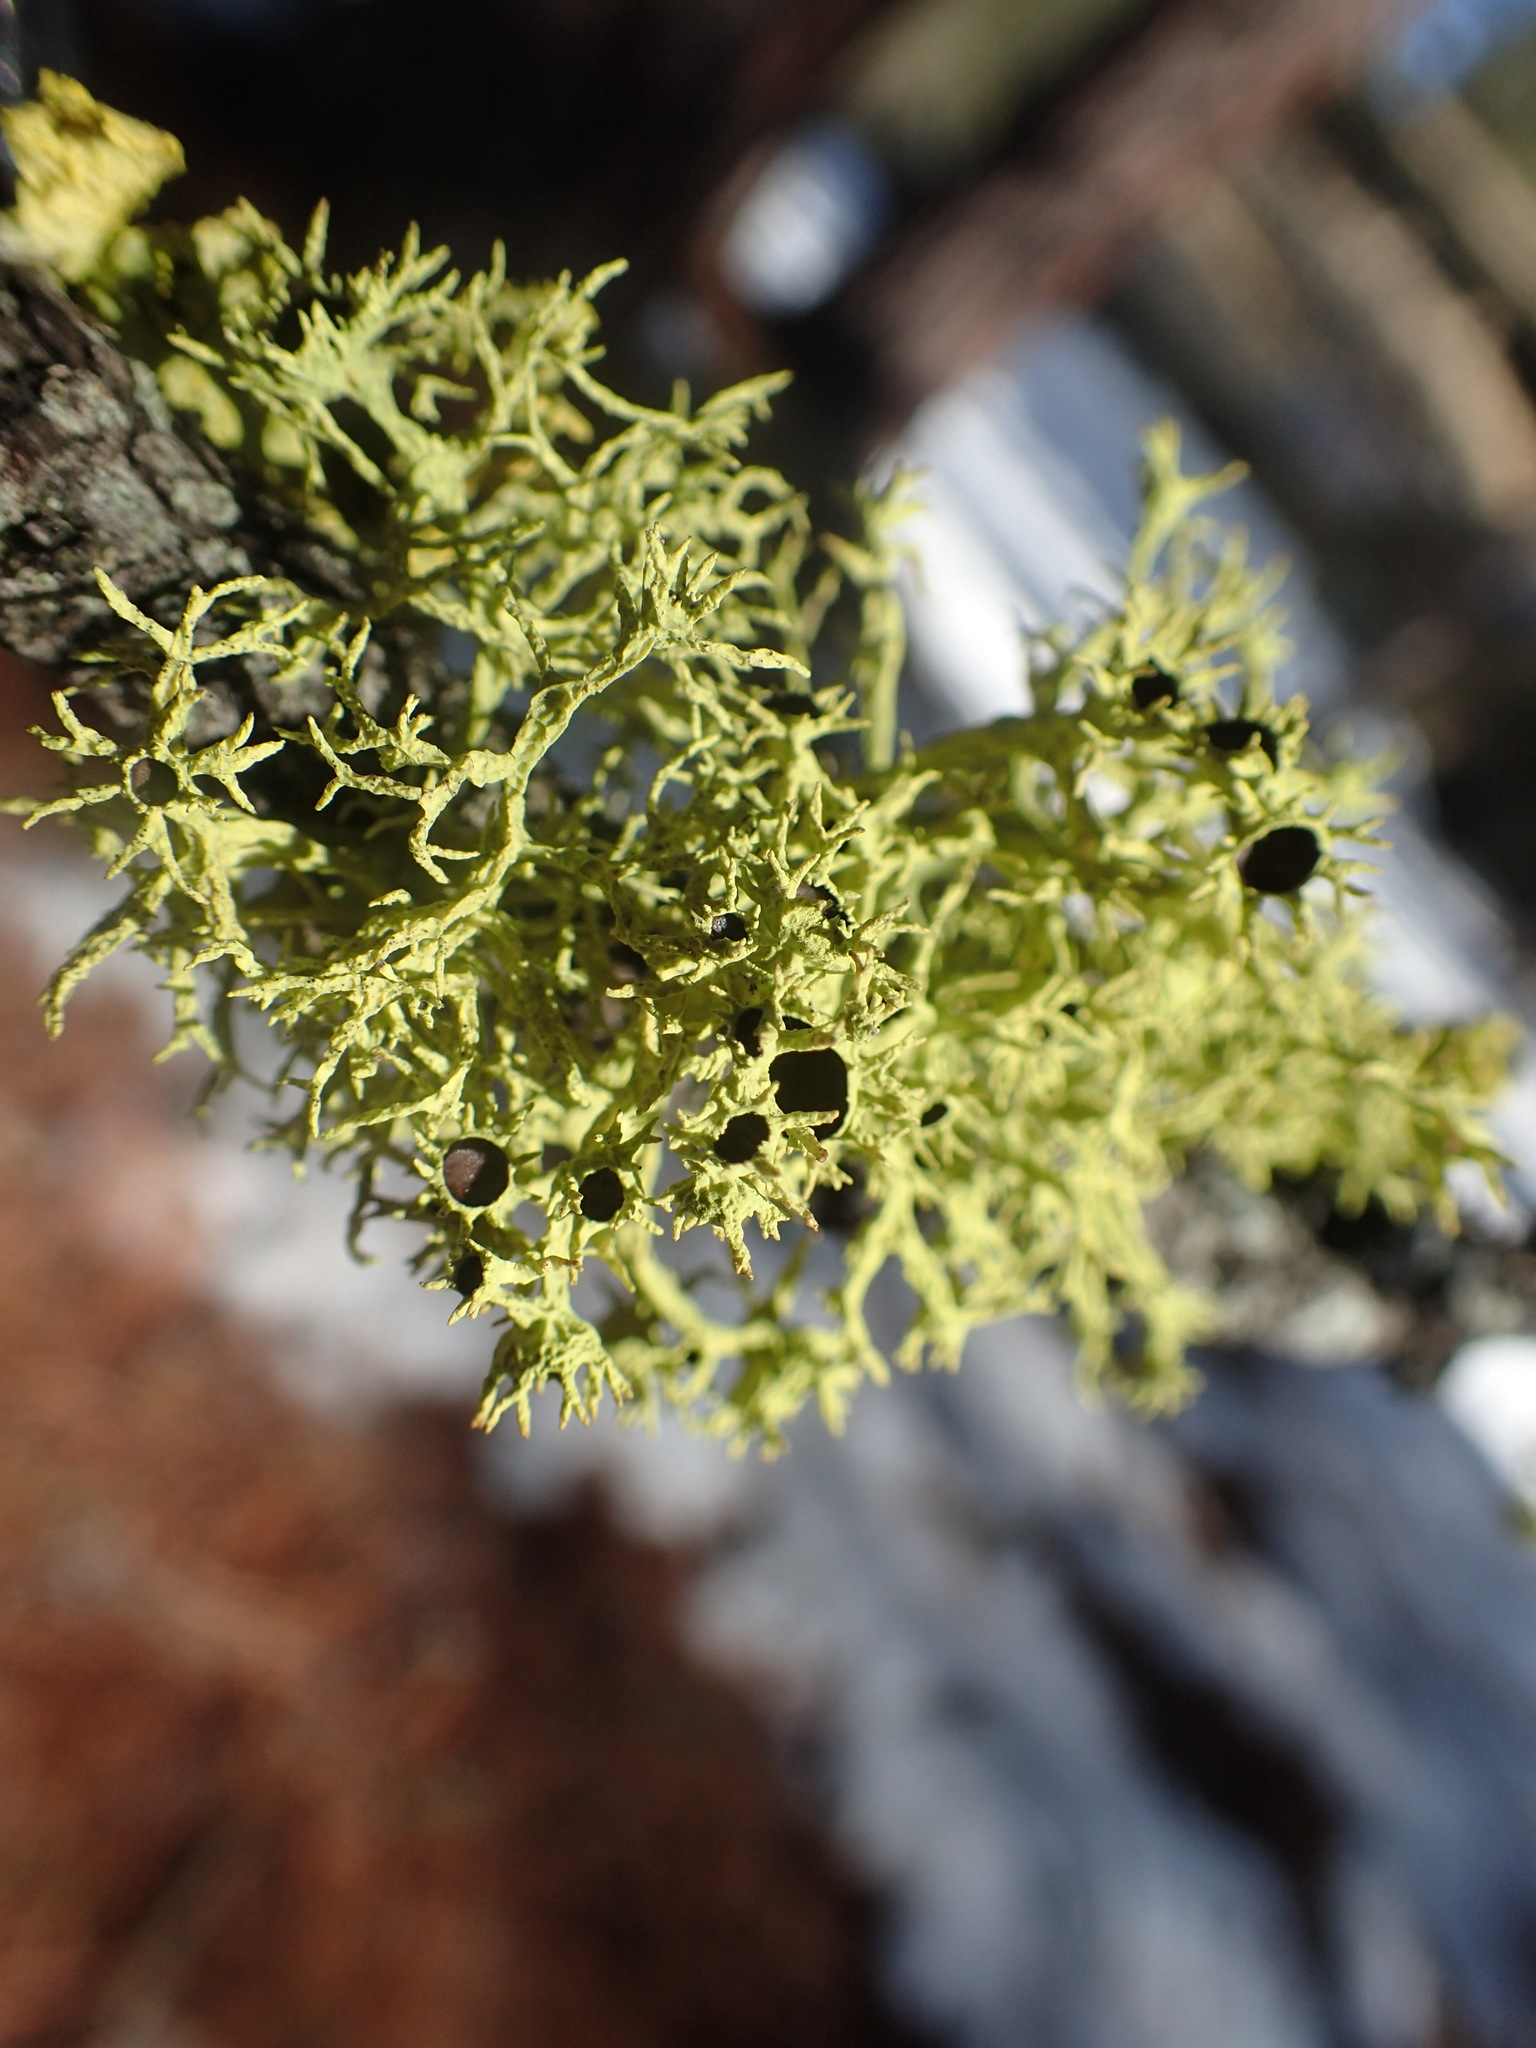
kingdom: Fungi
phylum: Ascomycota
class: Lecanoromycetes
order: Lecanorales
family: Parmeliaceae
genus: Letharia
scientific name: Letharia columbiana
